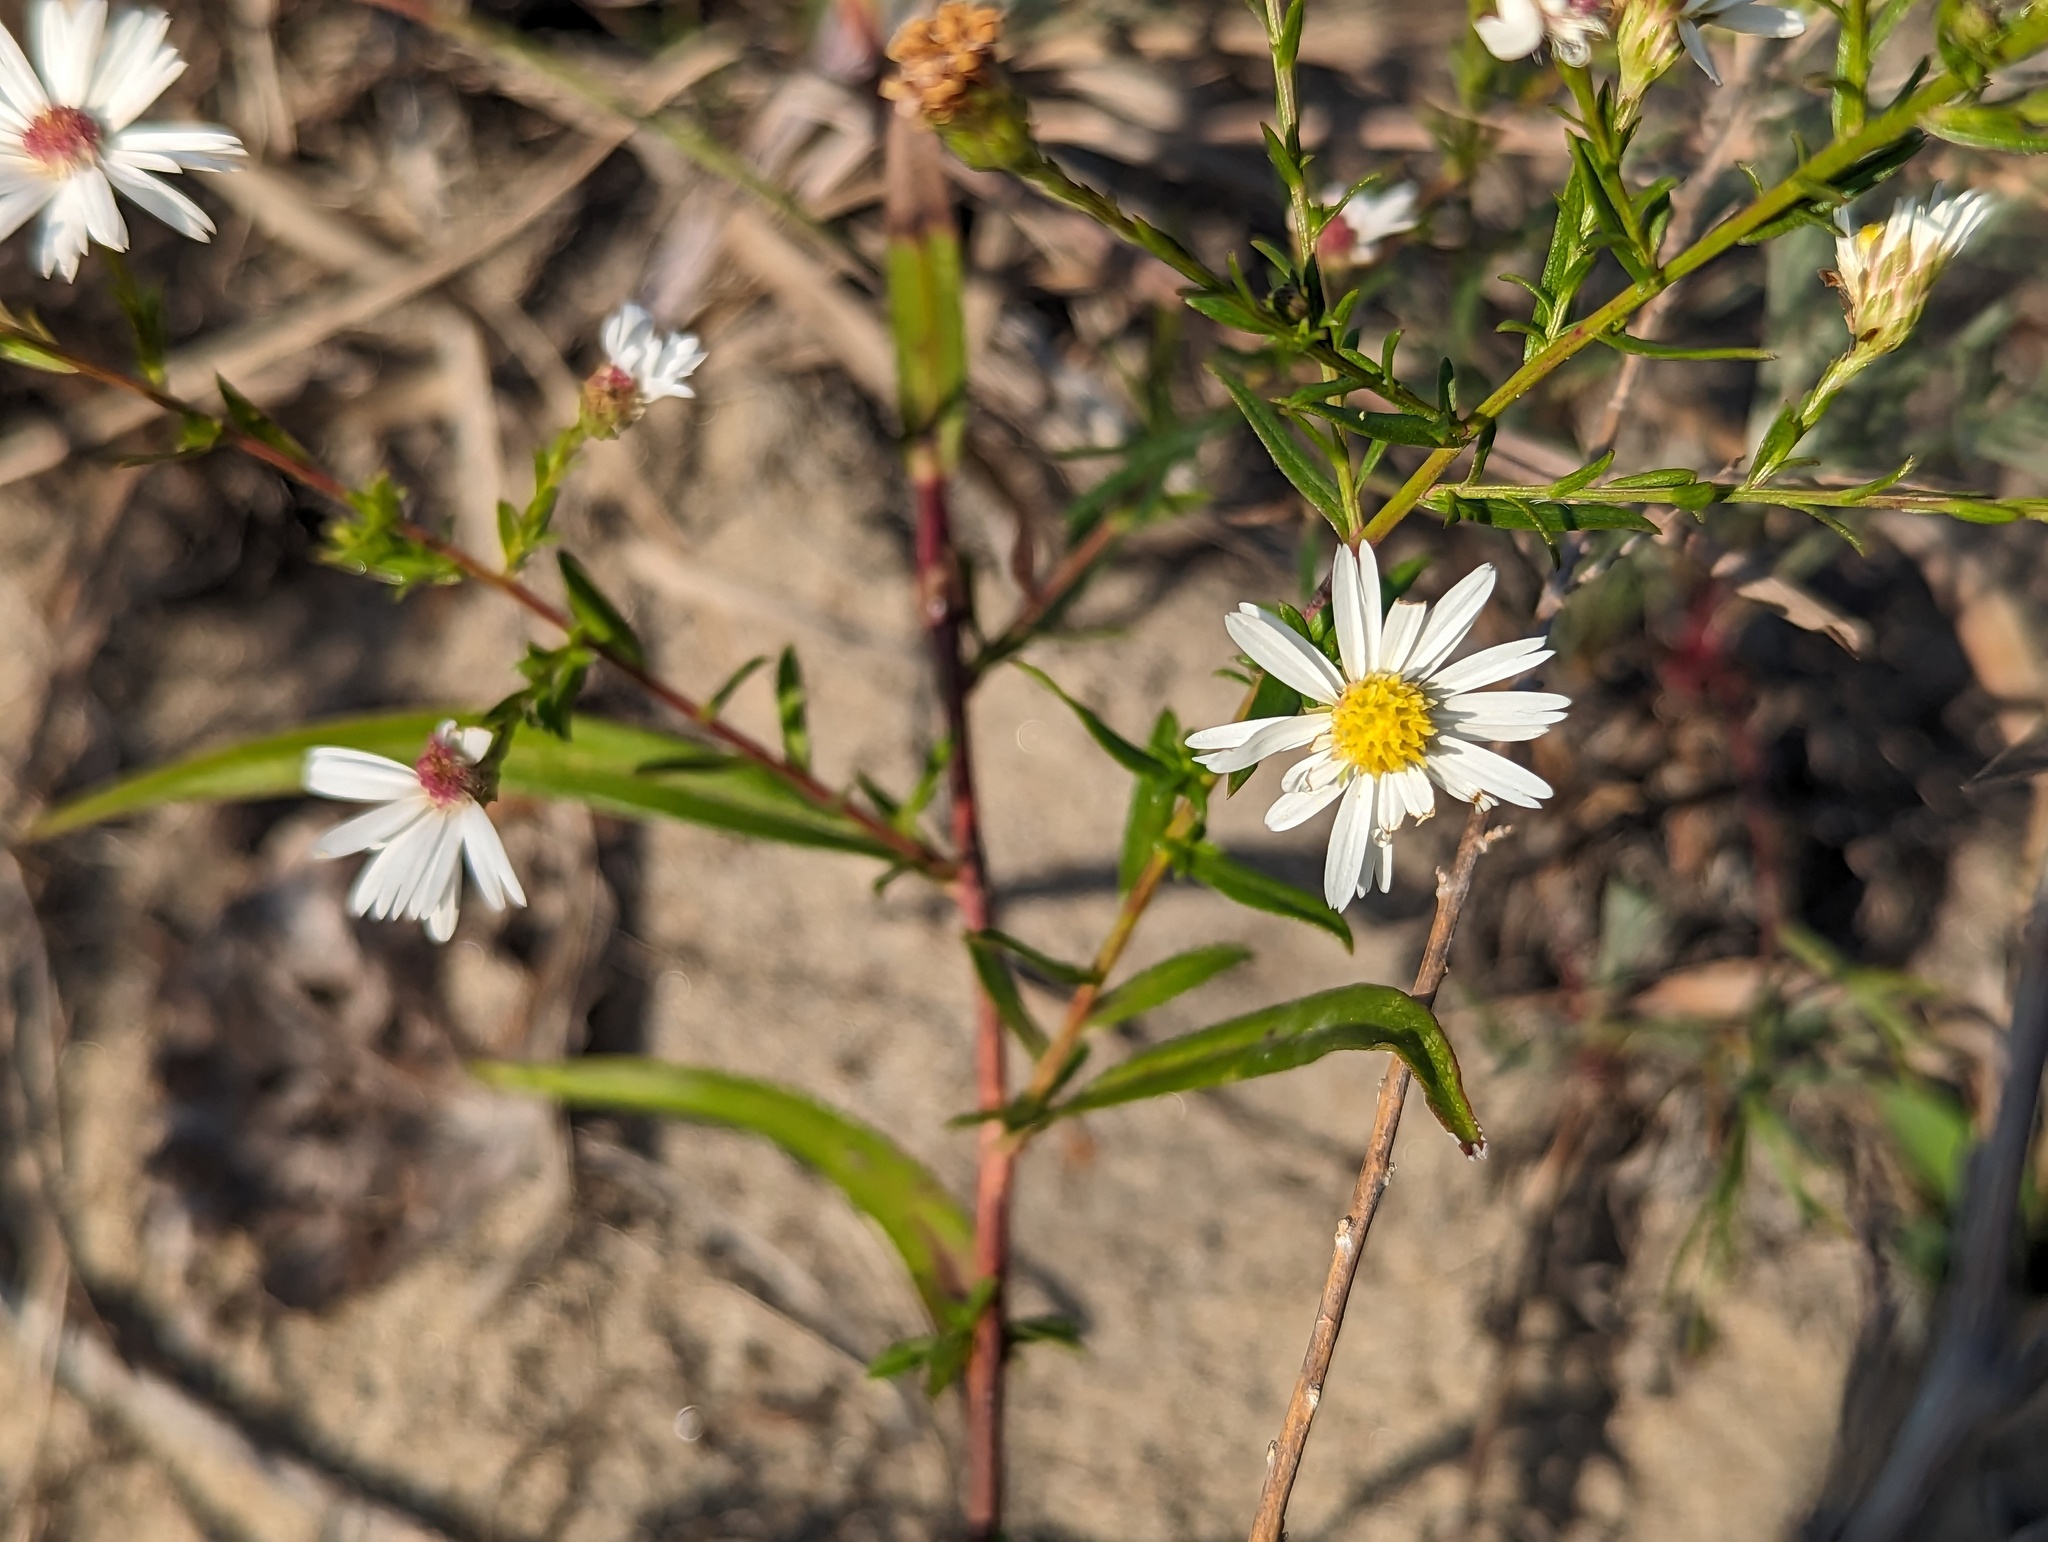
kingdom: Plantae
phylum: Tracheophyta
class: Magnoliopsida
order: Asterales
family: Asteraceae
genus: Symphyotrichum
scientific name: Symphyotrichum dumosum
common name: Bushy aster
